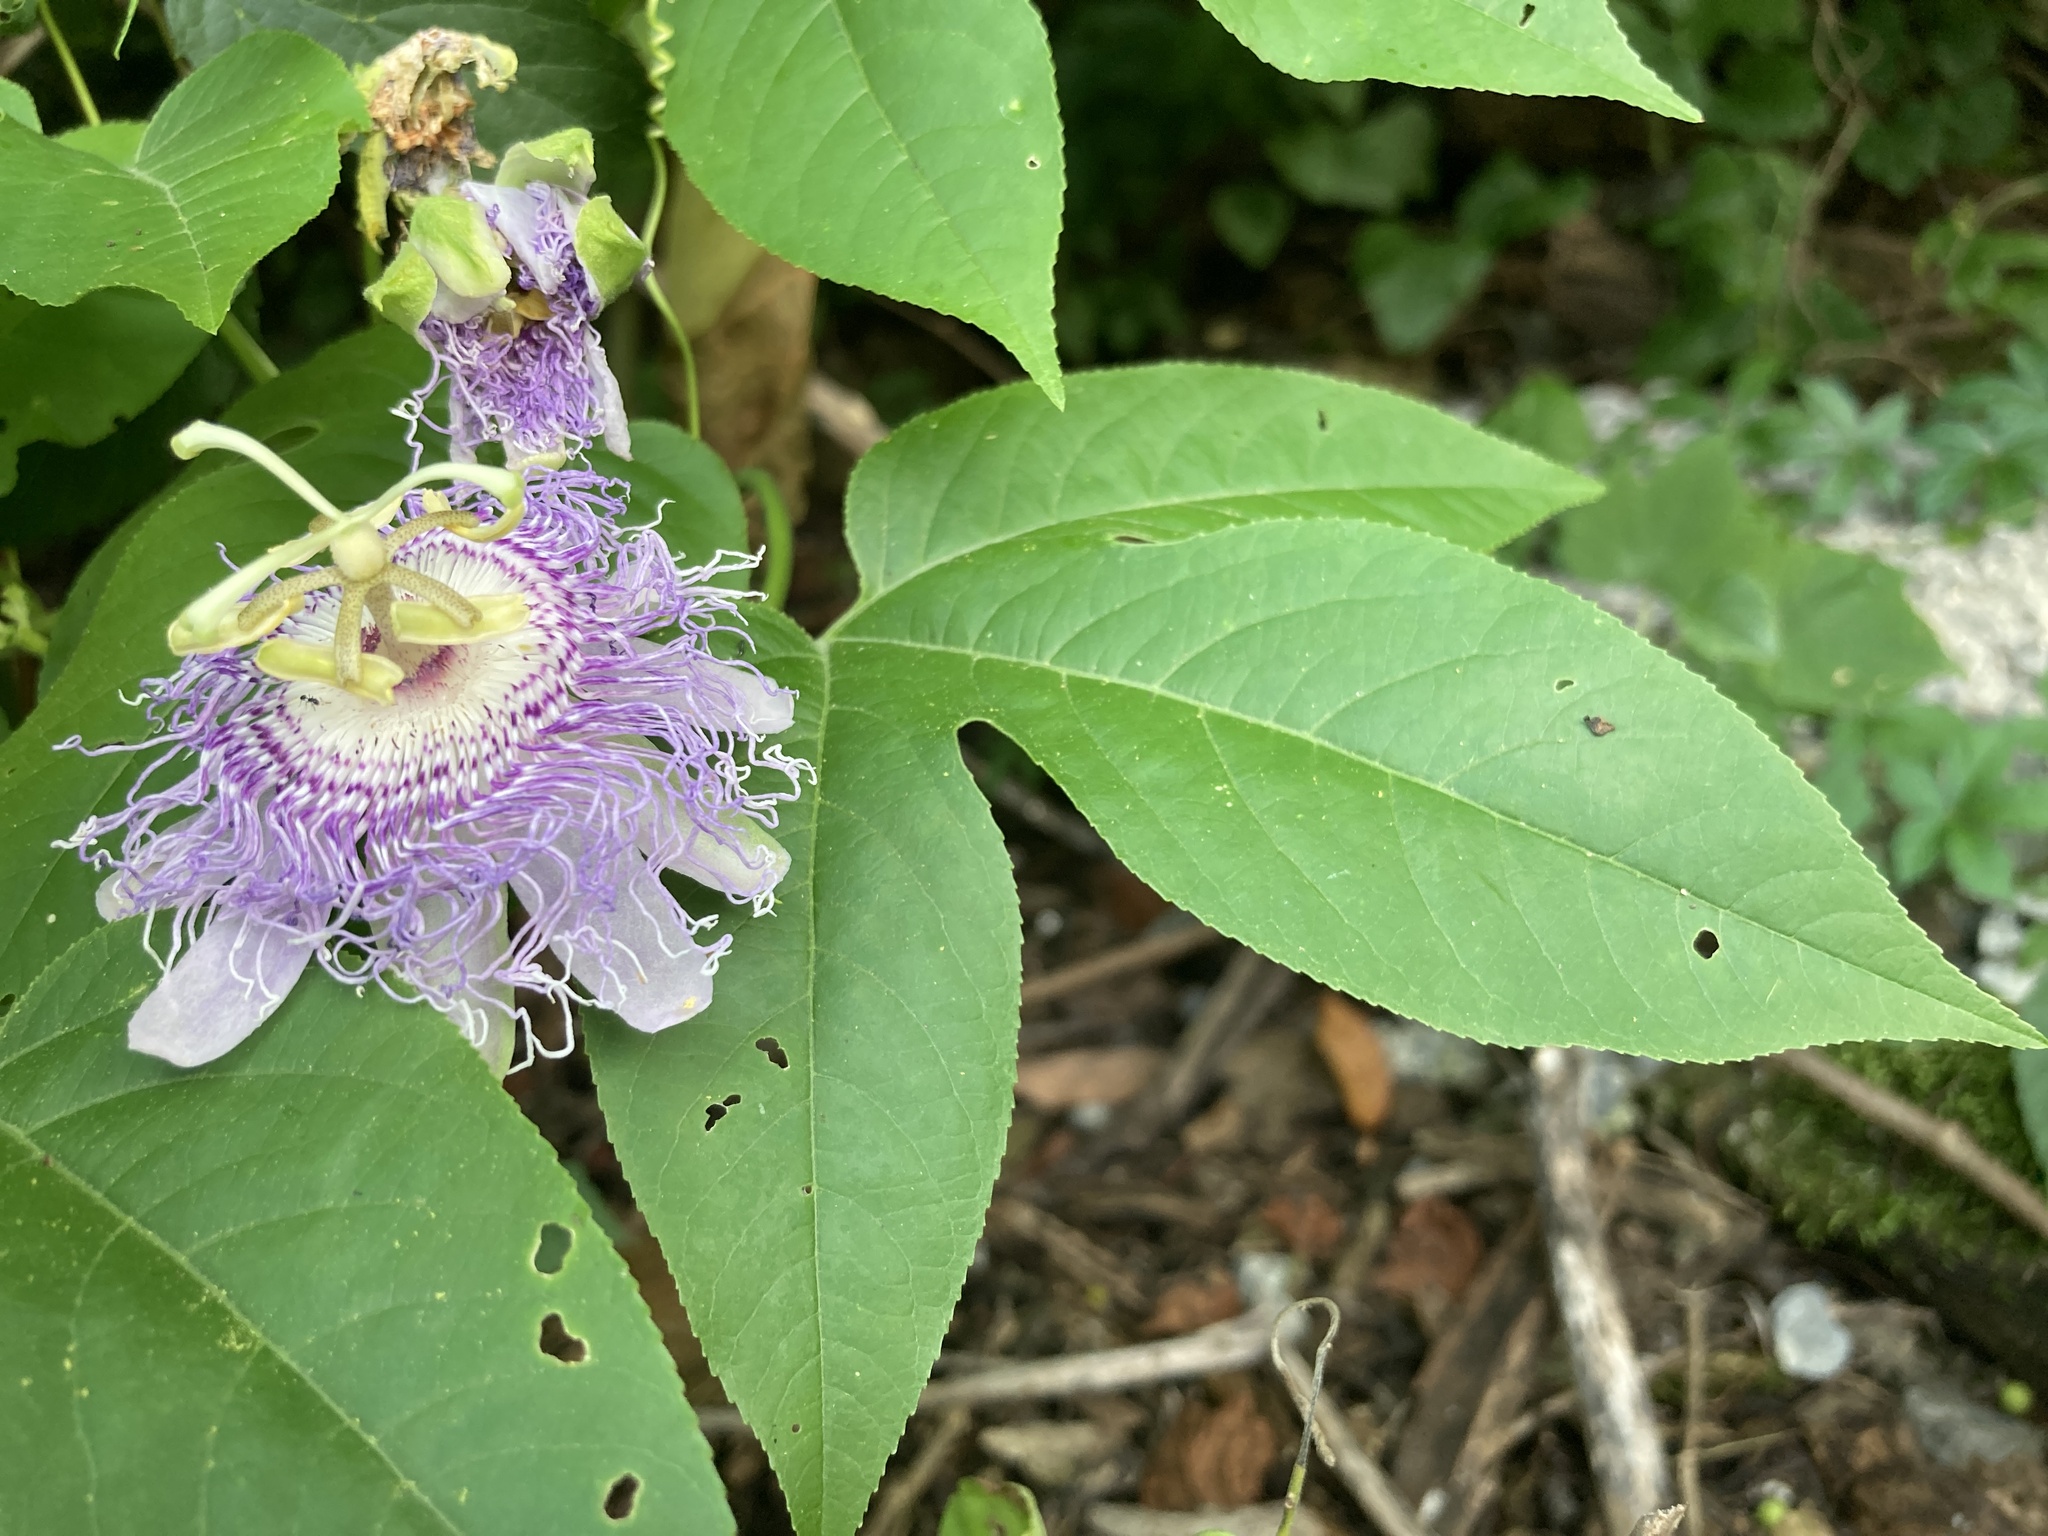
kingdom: Plantae
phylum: Tracheophyta
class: Magnoliopsida
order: Malpighiales
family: Passifloraceae
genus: Passiflora
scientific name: Passiflora incarnata
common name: Apricot-vine
